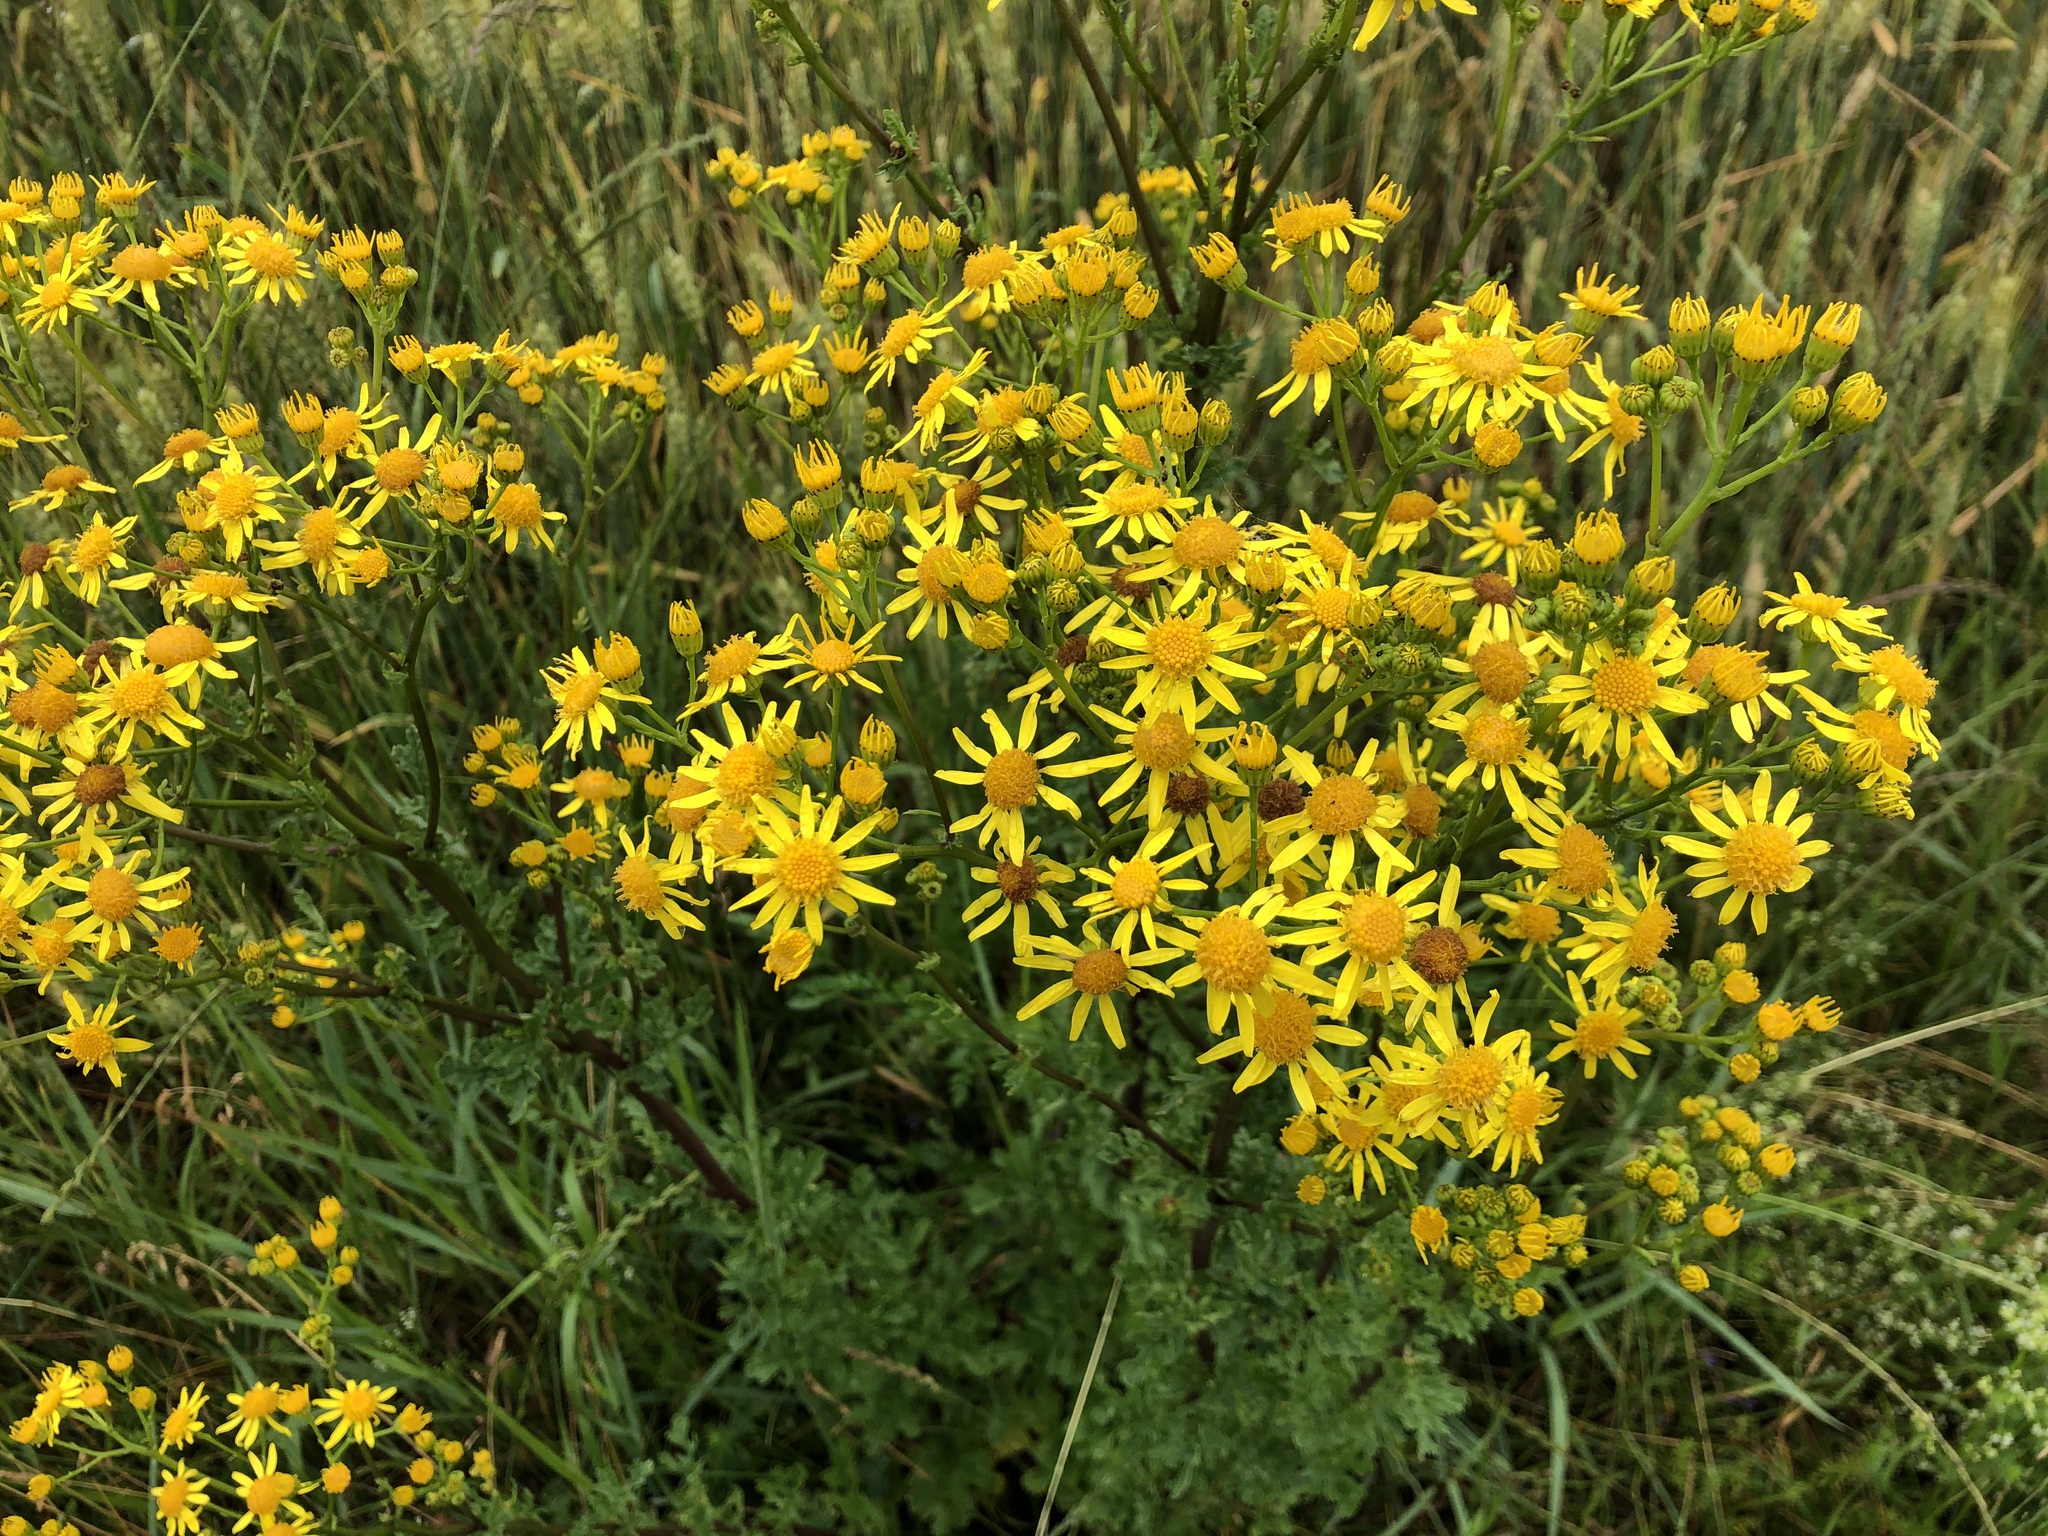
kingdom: Plantae
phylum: Tracheophyta
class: Magnoliopsida
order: Asterales
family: Asteraceae
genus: Jacobaea
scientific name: Jacobaea vulgaris
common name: Stinking willie
